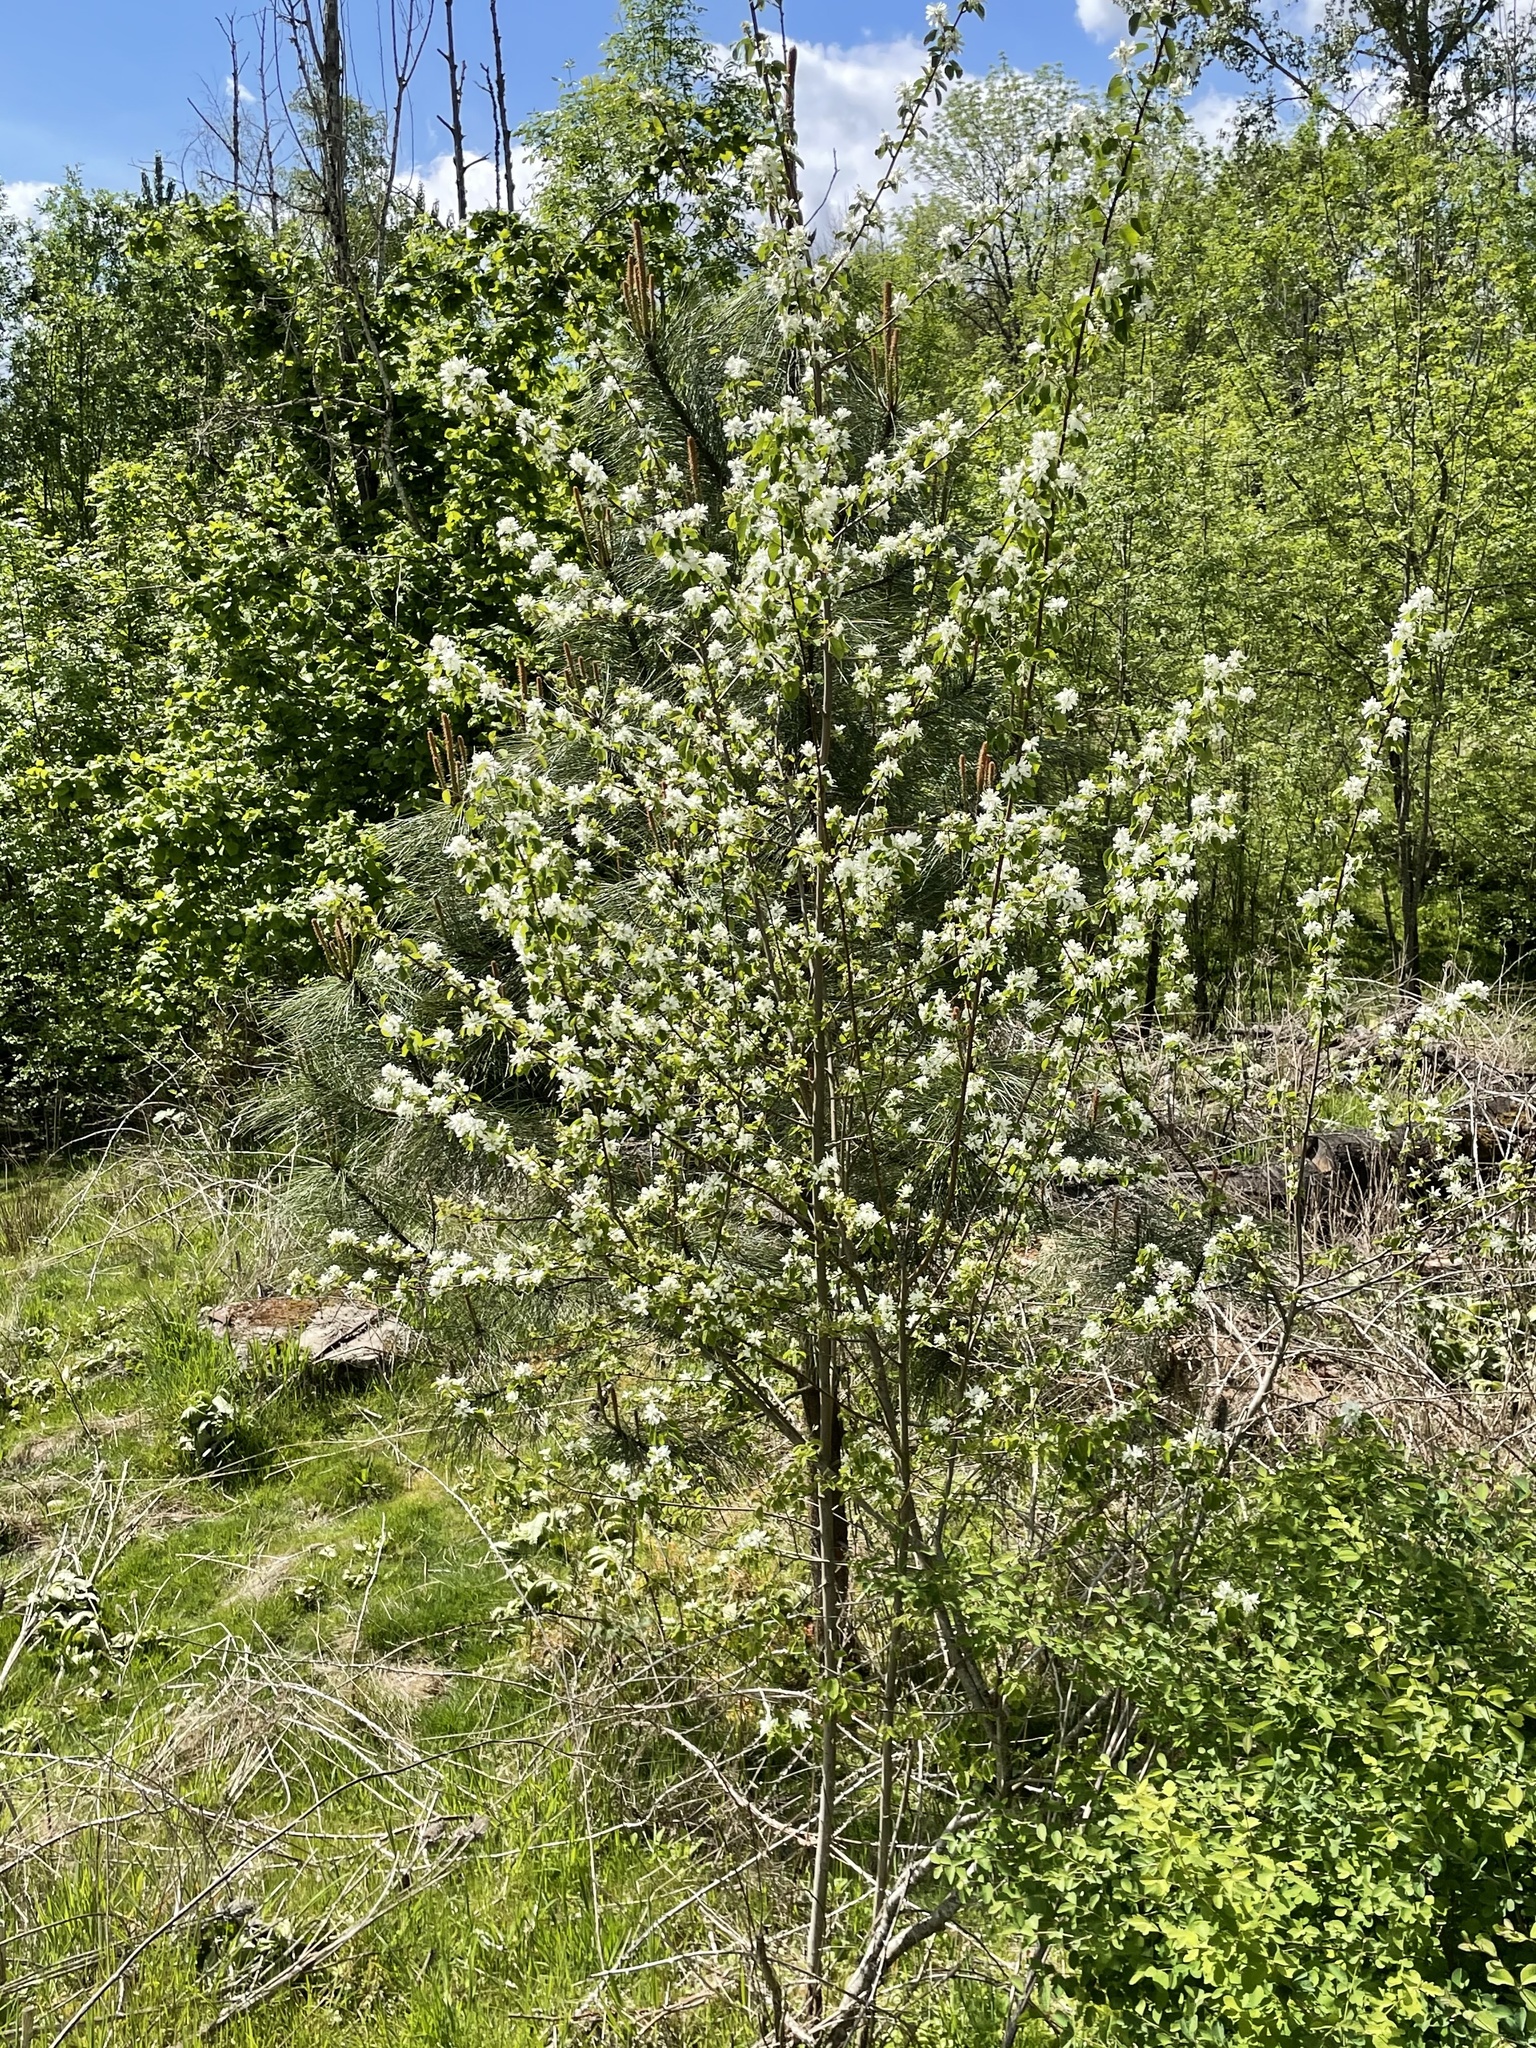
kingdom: Plantae
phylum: Tracheophyta
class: Magnoliopsida
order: Rosales
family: Rosaceae
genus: Amelanchier
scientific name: Amelanchier alnifolia
